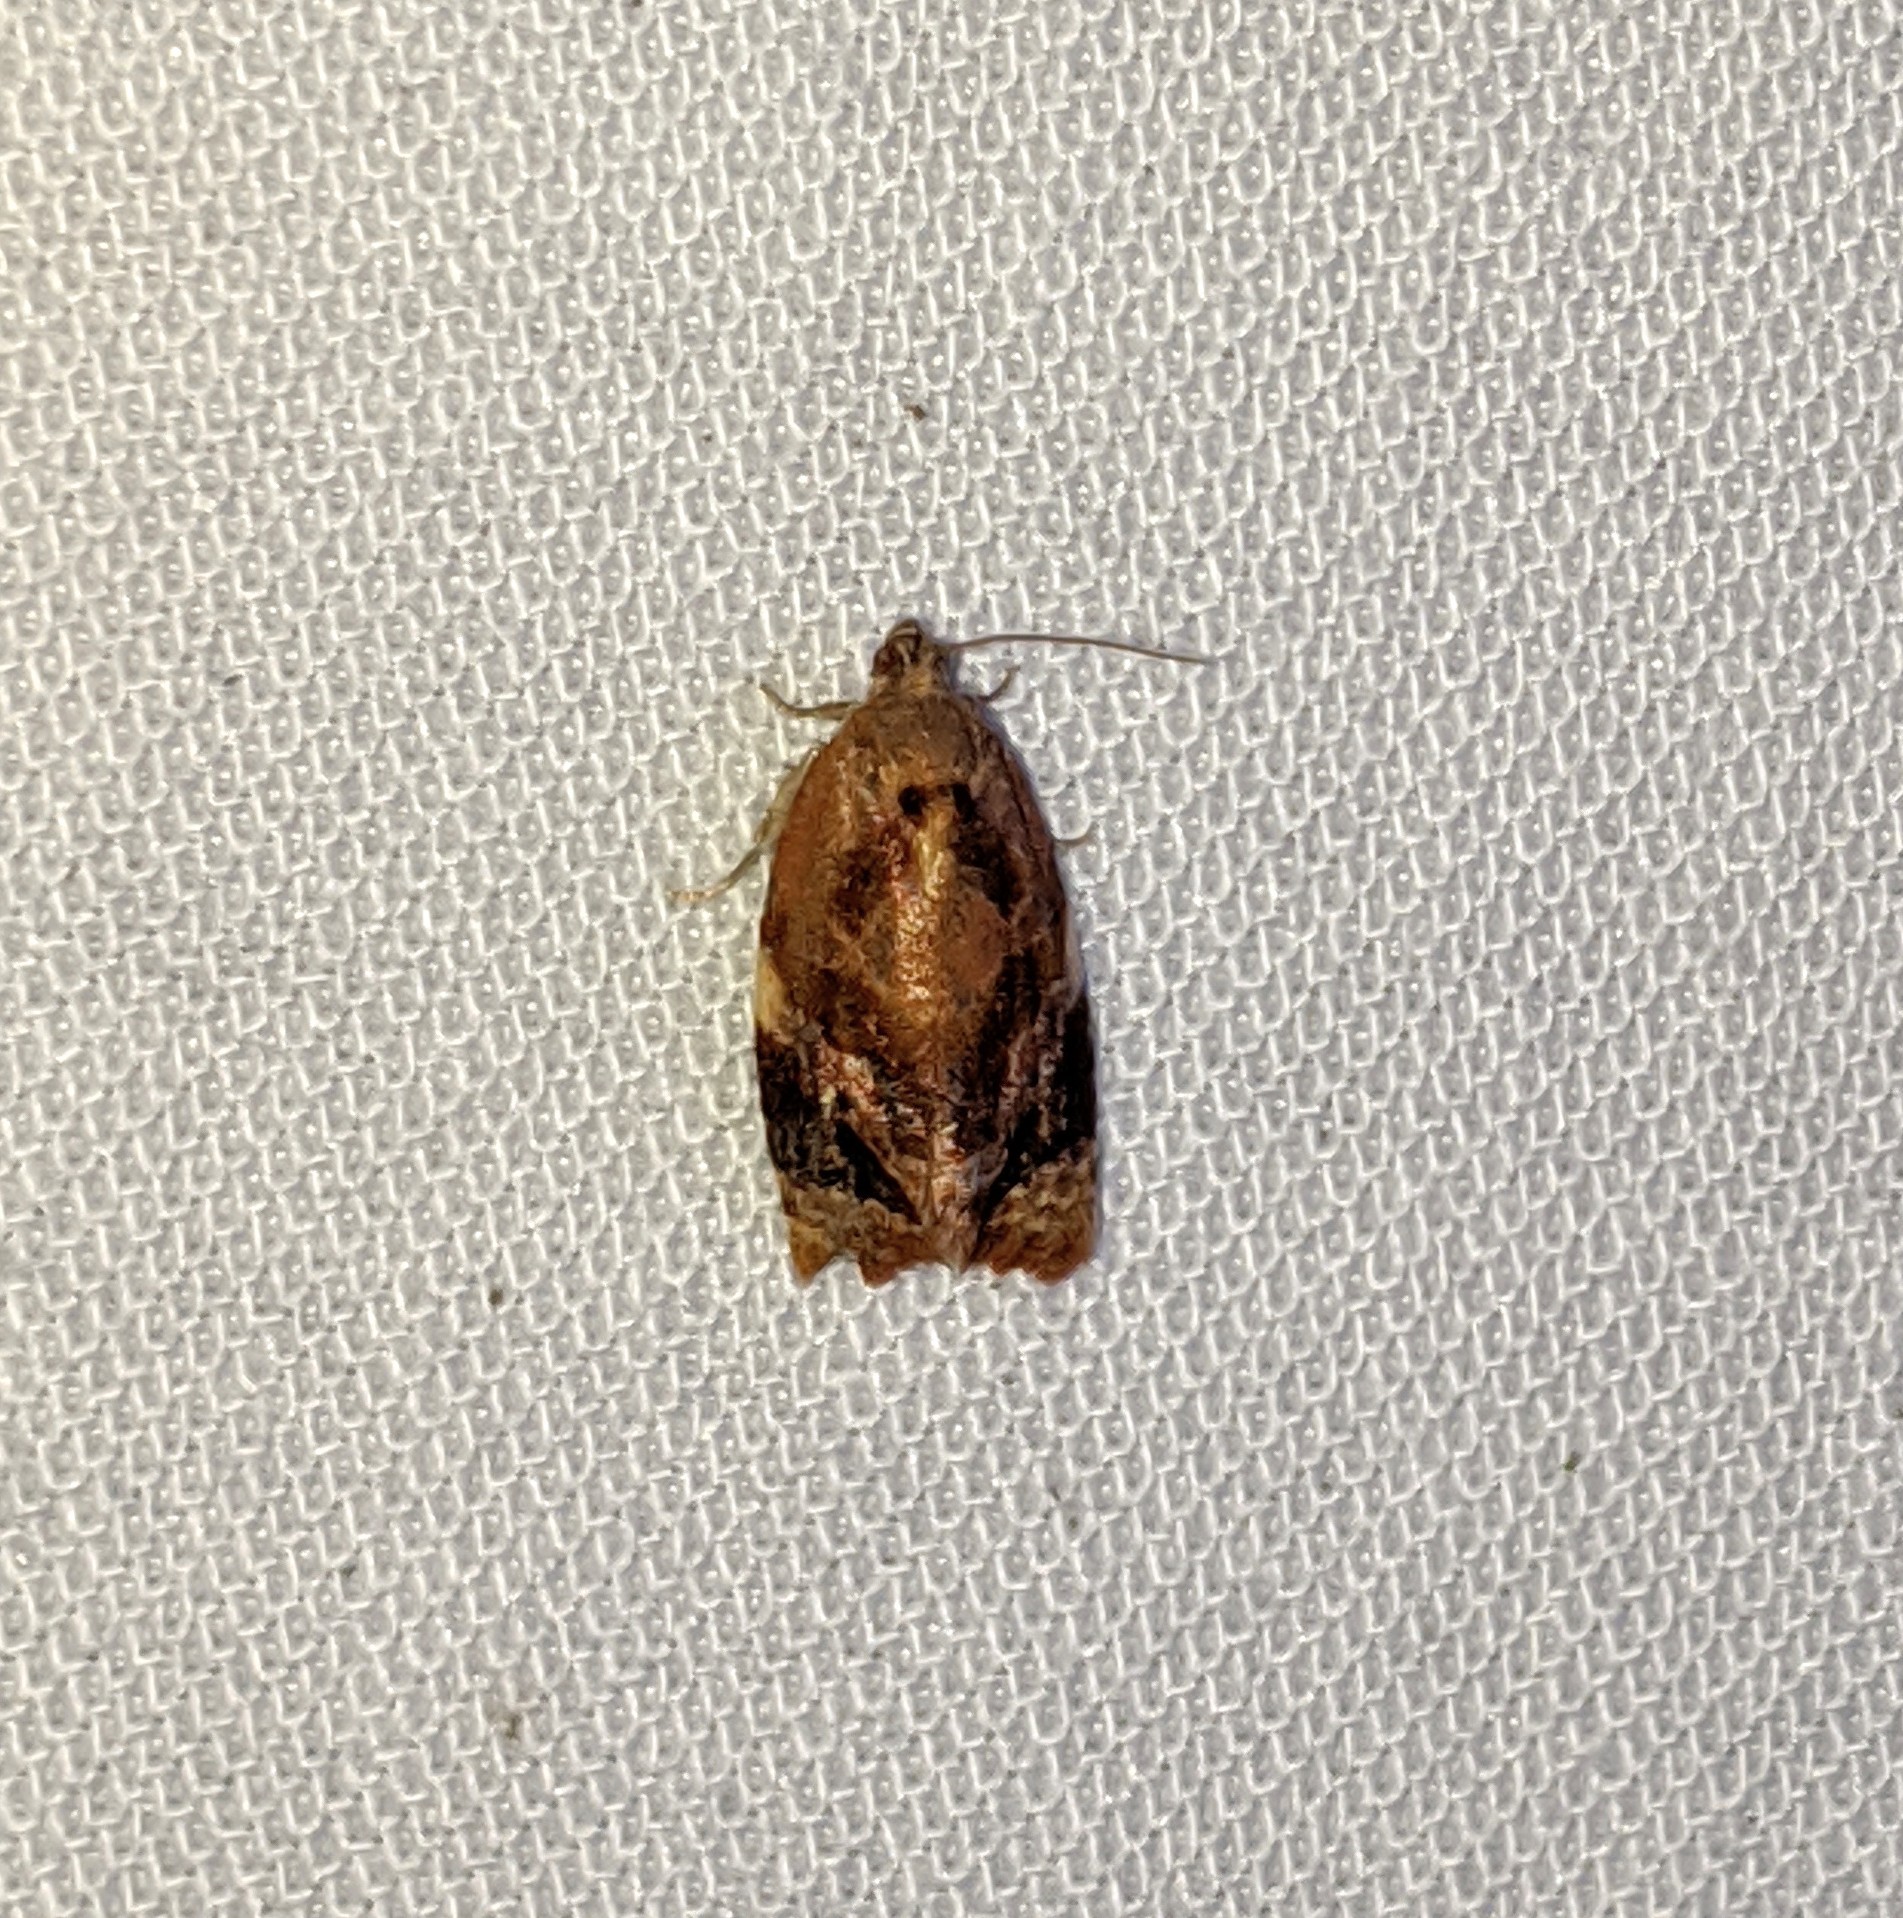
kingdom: Animalia
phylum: Arthropoda
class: Insecta
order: Lepidoptera
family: Tortricidae
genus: Ditula
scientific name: Ditula angustiorana
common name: Red-barred tortrix
